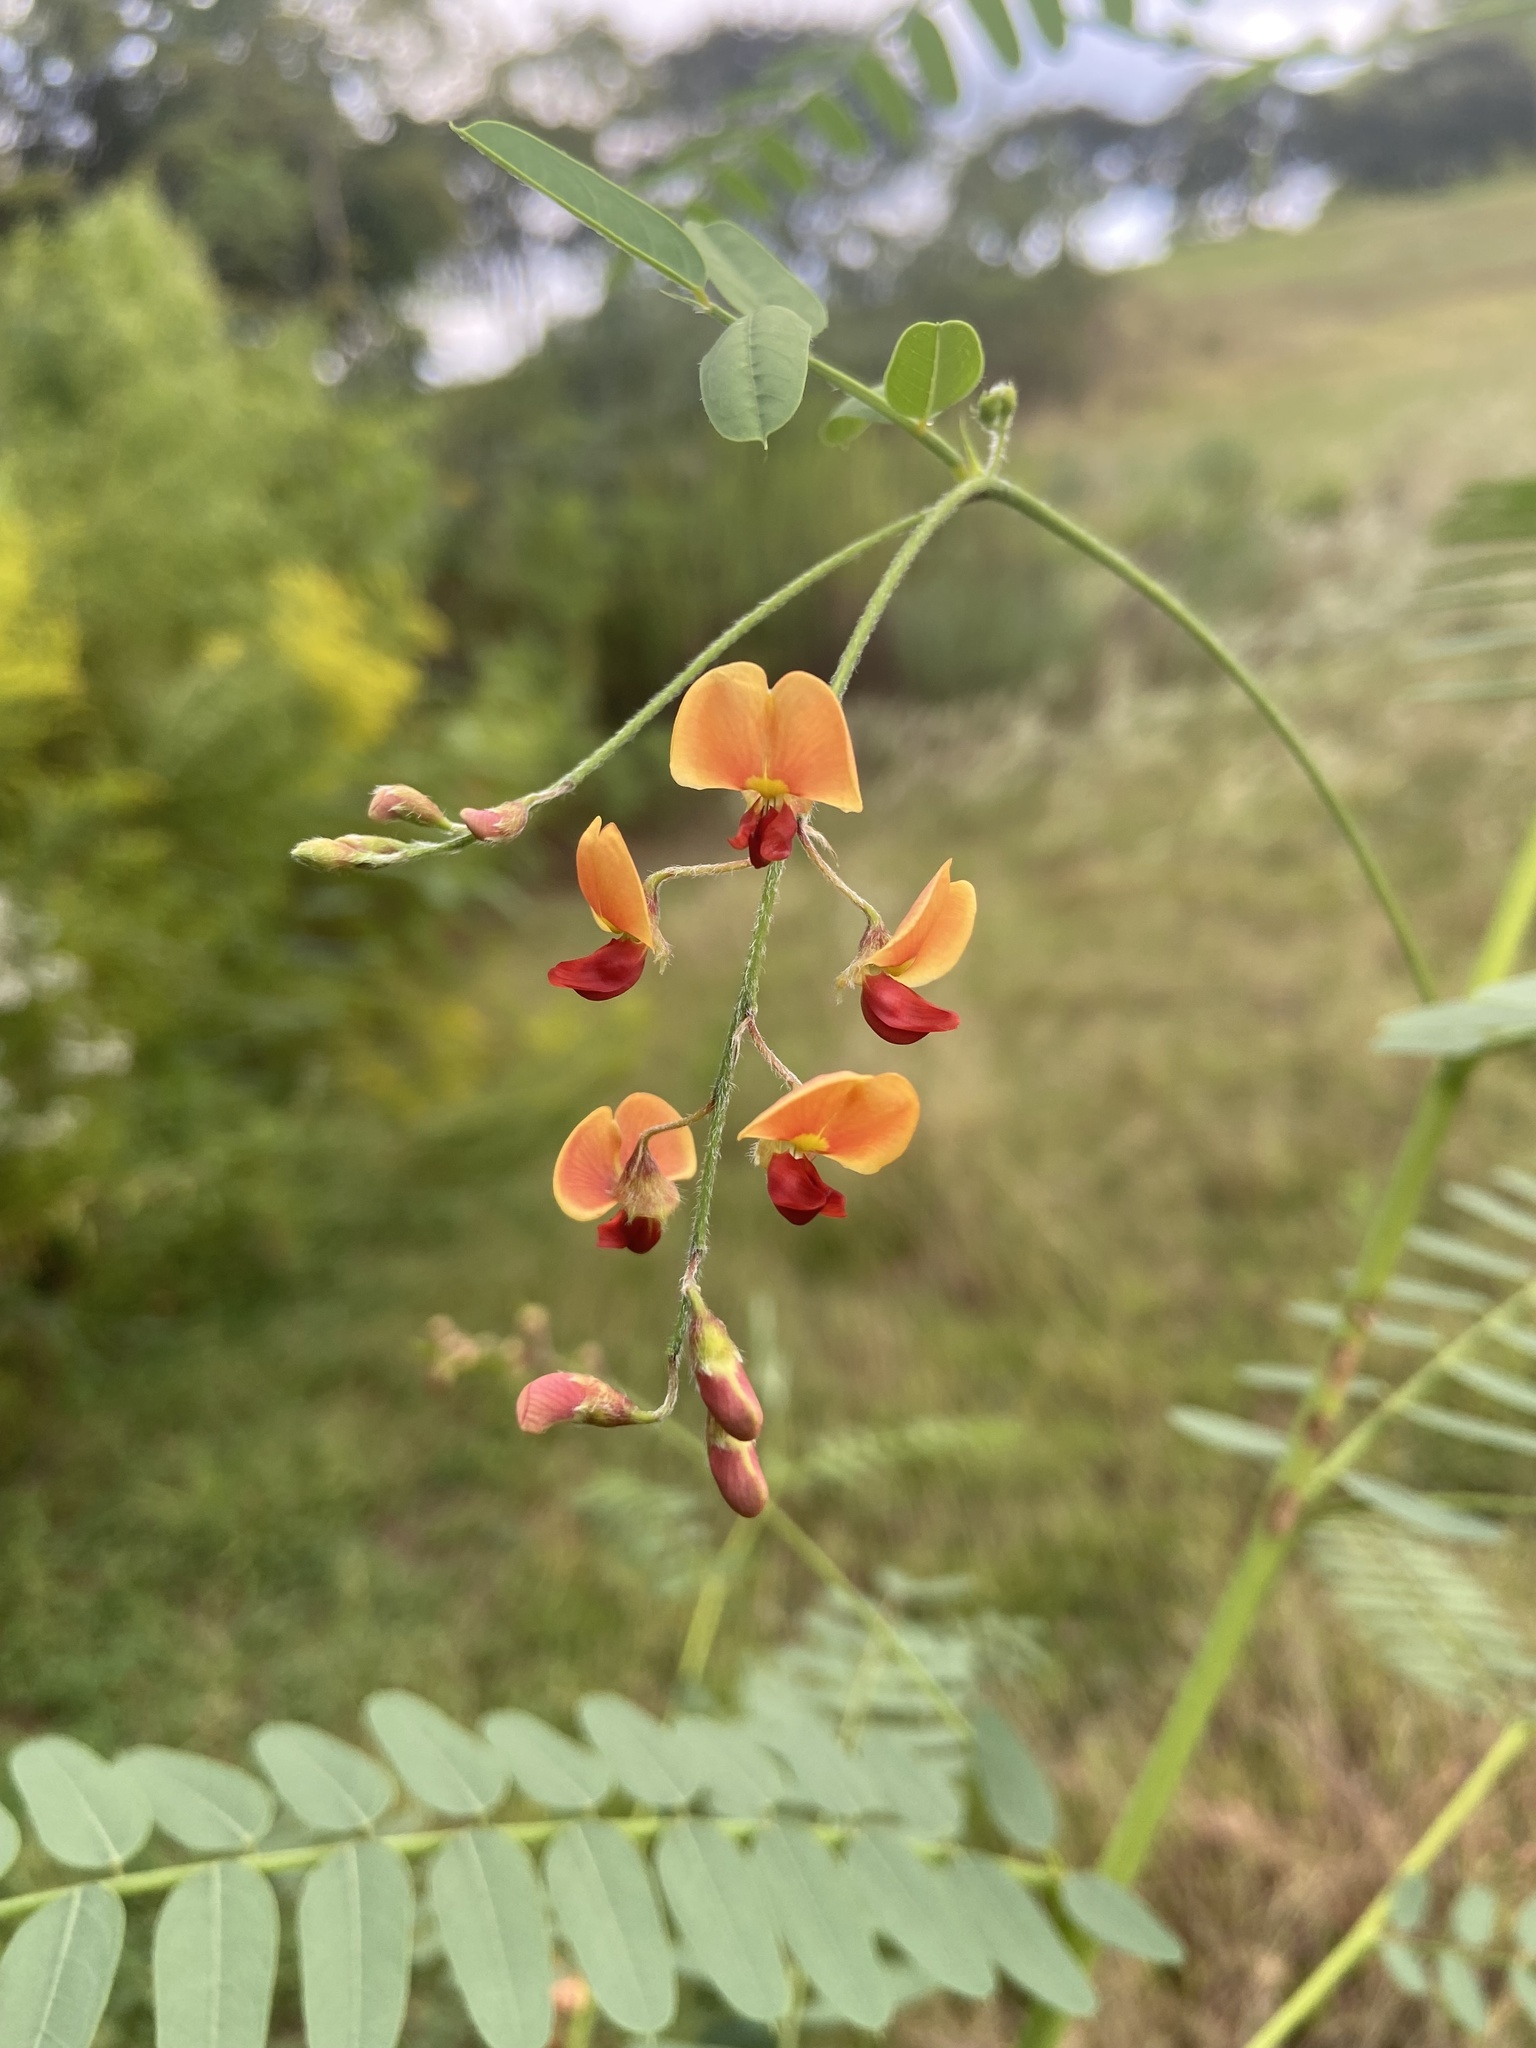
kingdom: Plantae
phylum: Tracheophyta
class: Magnoliopsida
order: Fabales
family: Fabaceae
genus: Sesbania
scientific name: Sesbania vesicaria
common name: Bagpod
